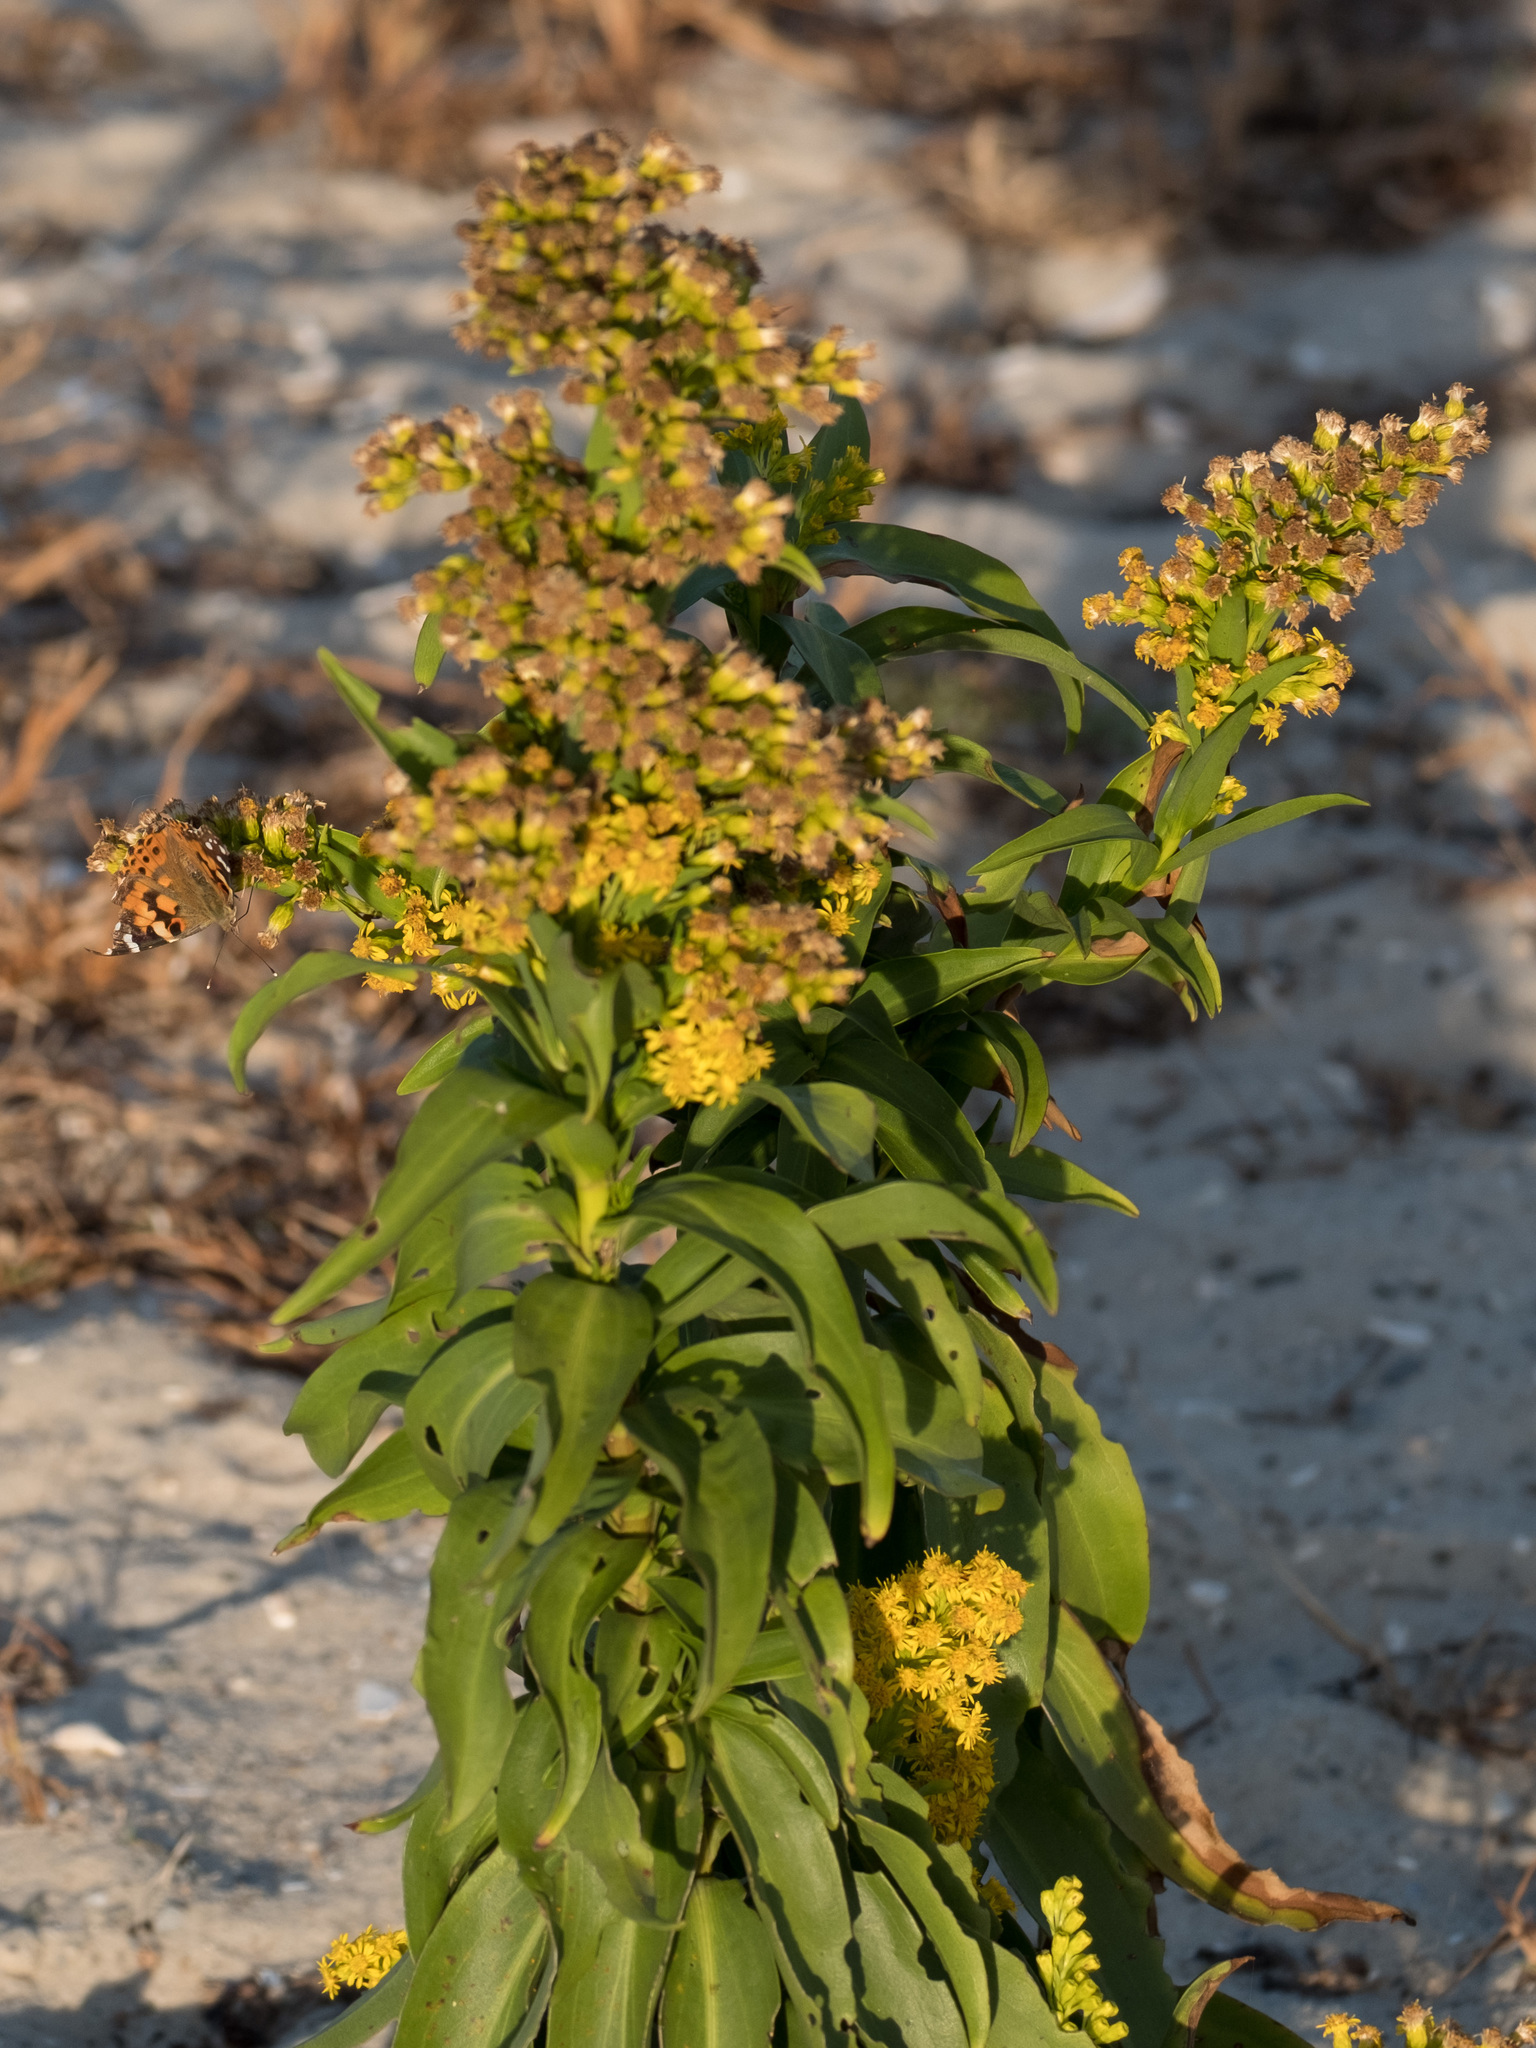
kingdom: Plantae
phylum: Tracheophyta
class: Magnoliopsida
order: Asterales
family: Asteraceae
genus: Solidago
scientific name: Solidago sempervirens
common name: Salt-marsh goldenrod
